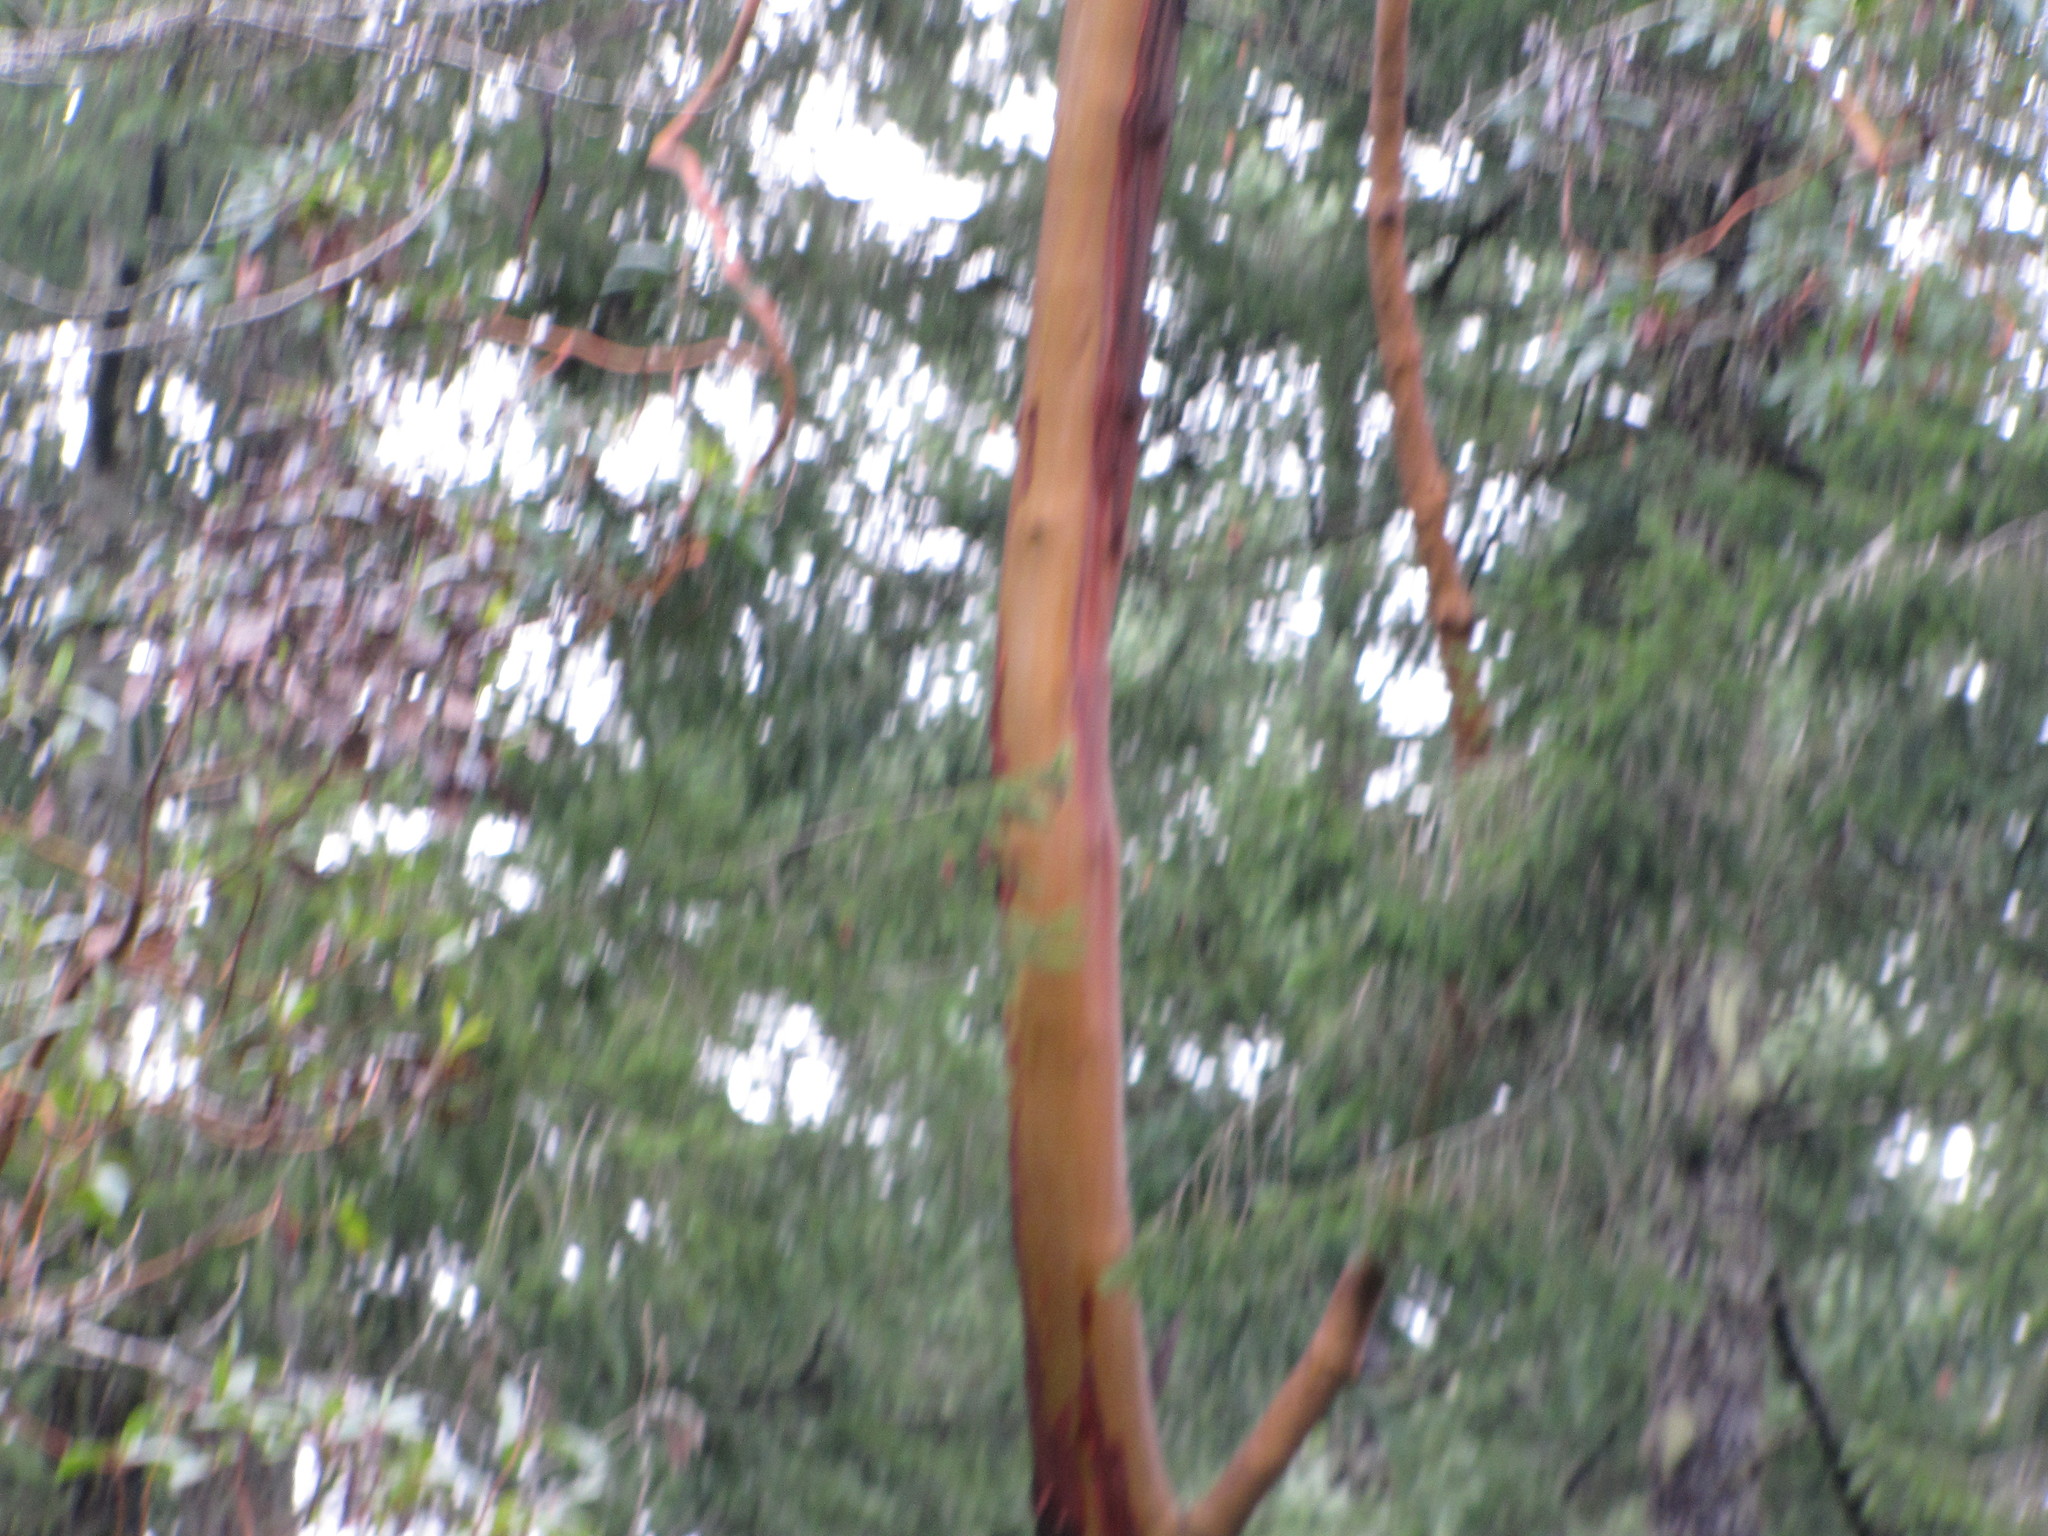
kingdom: Plantae
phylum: Tracheophyta
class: Magnoliopsida
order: Ericales
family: Ericaceae
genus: Arbutus
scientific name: Arbutus menziesii
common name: Pacific madrone
